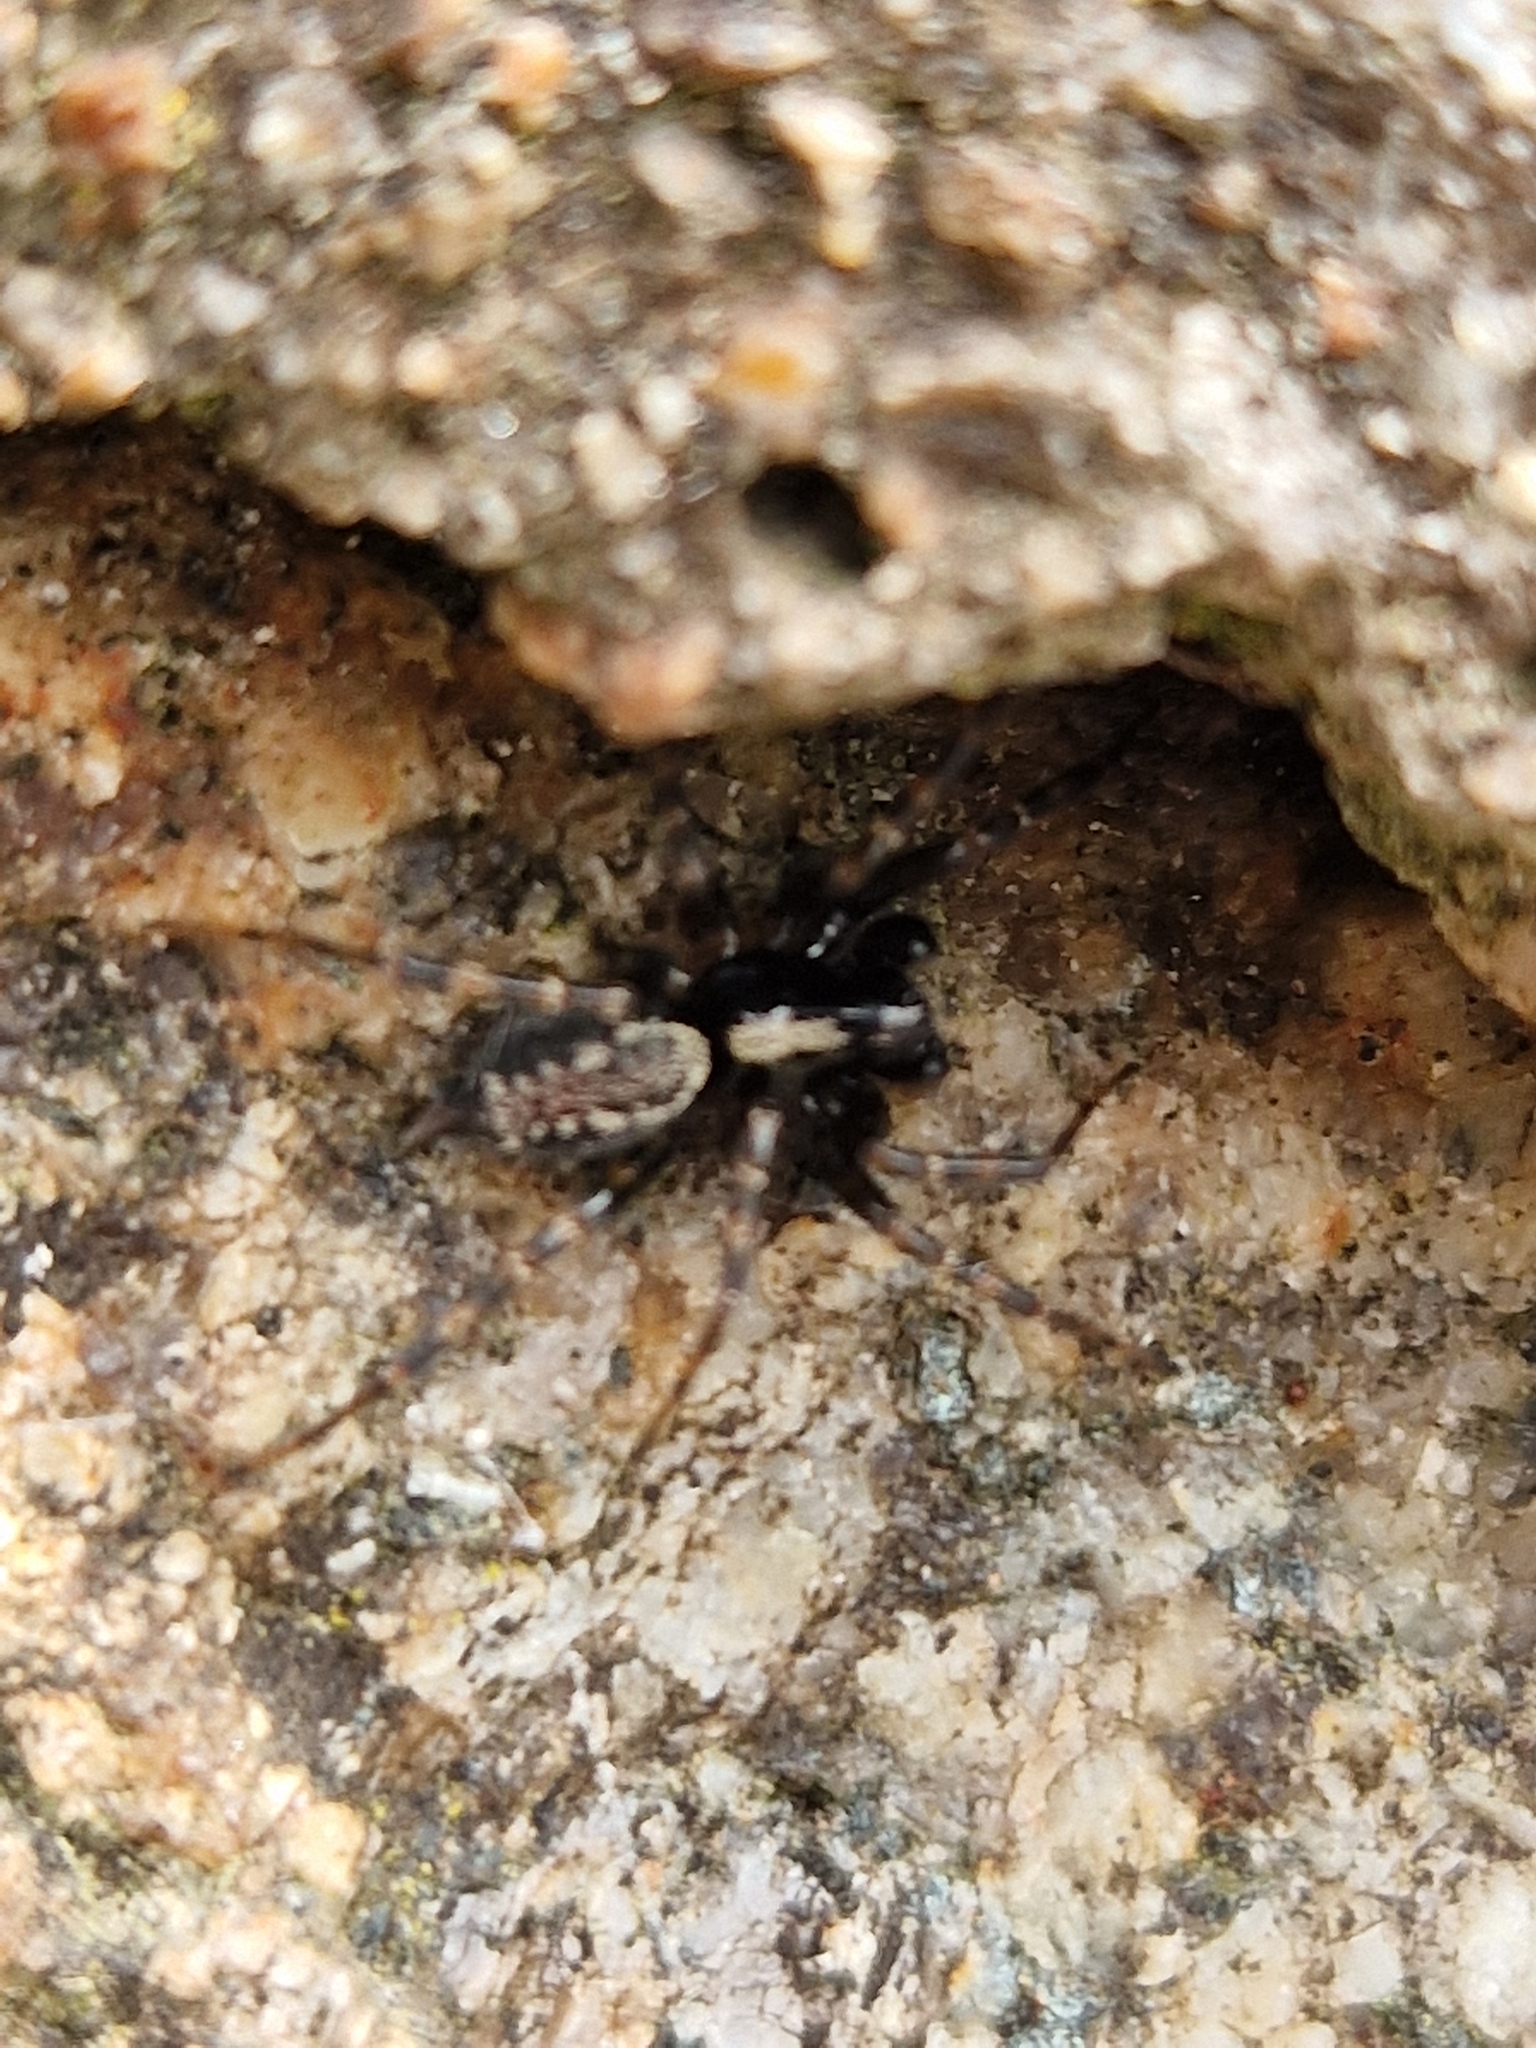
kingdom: Animalia
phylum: Arthropoda
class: Arachnida
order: Araneae
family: Agelenidae
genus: Textrix
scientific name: Textrix denticulata
